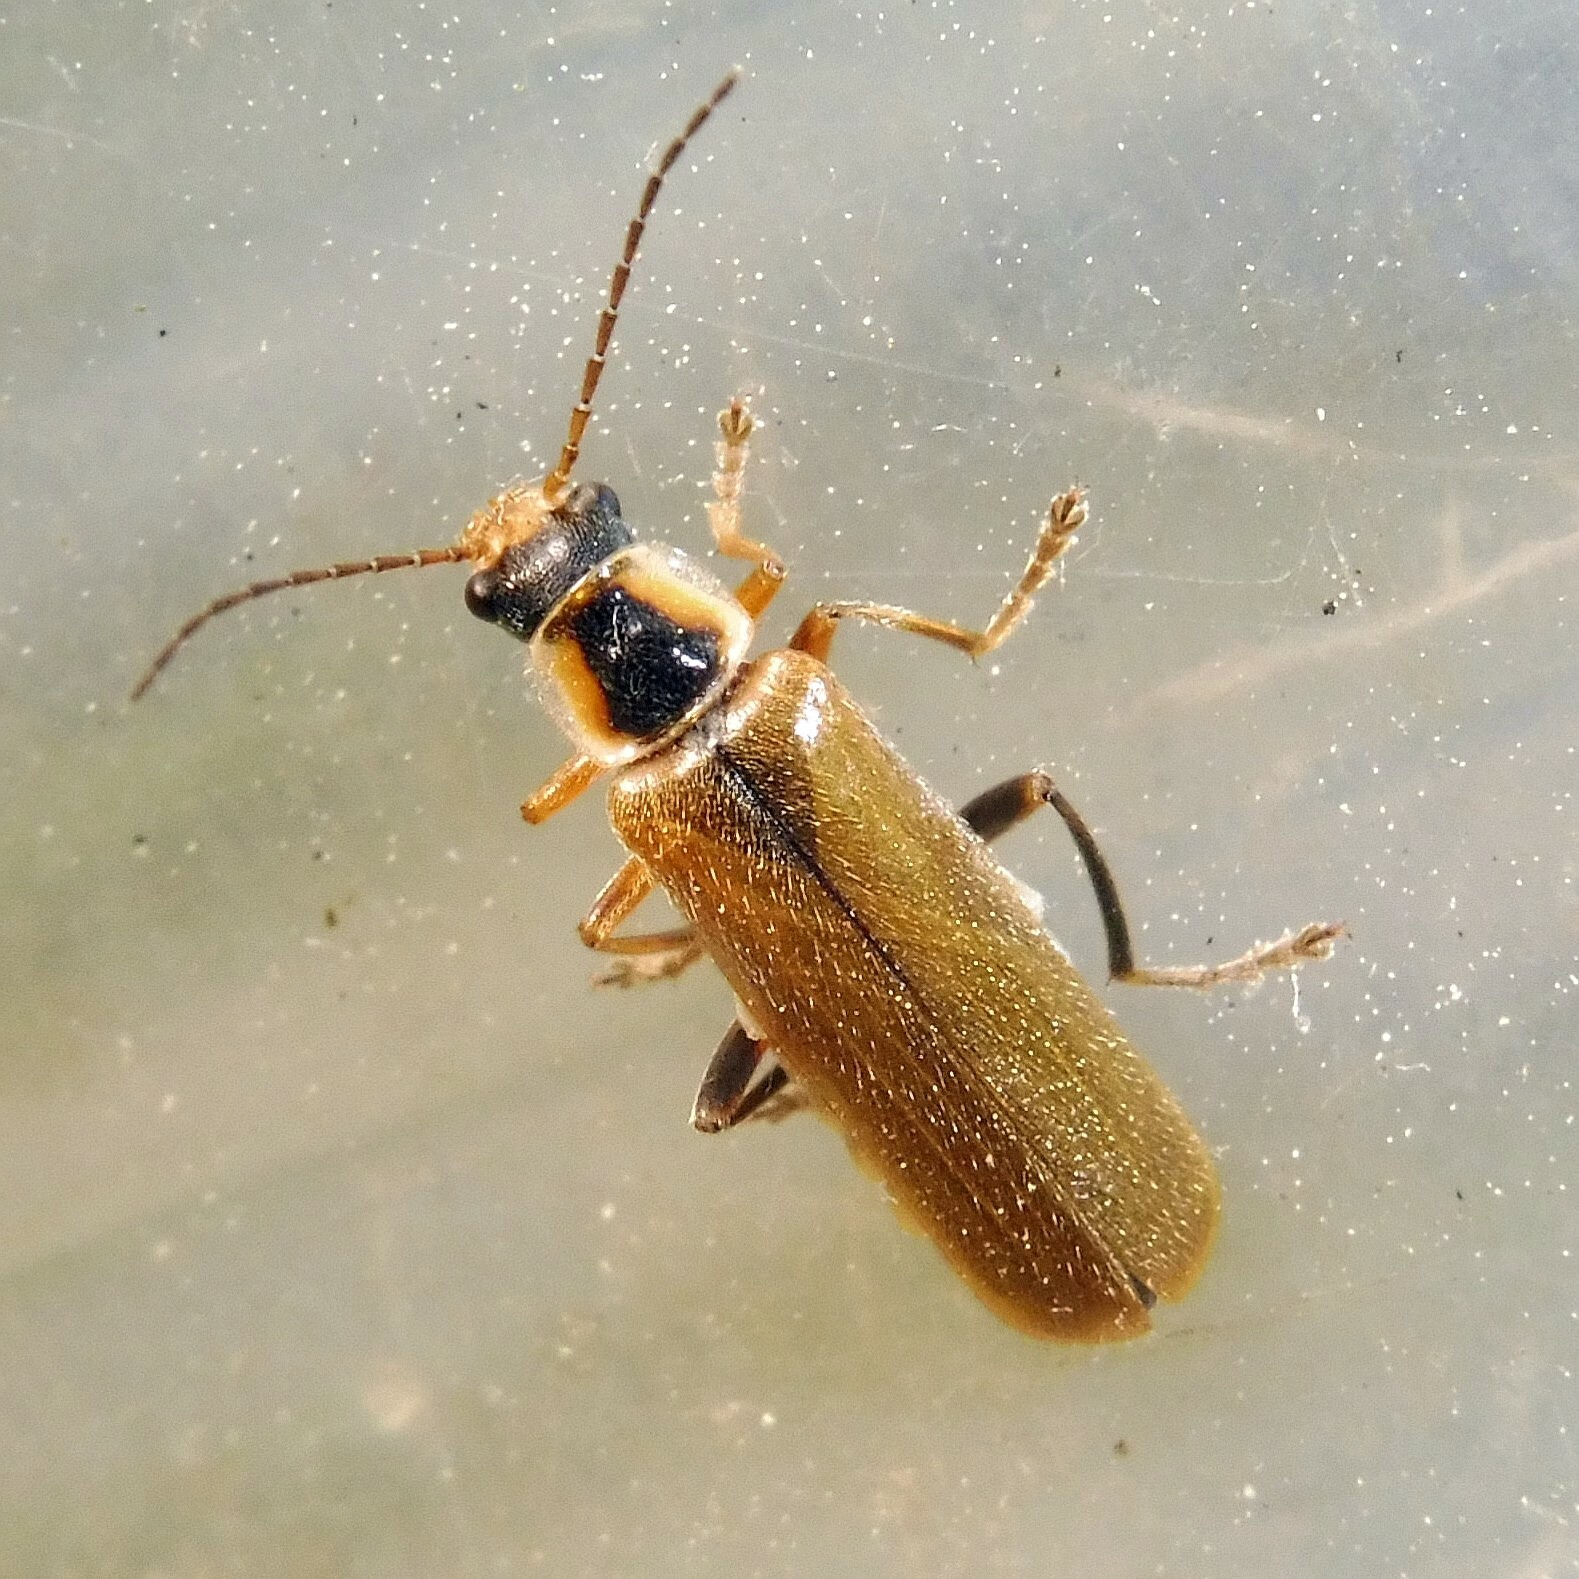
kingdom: Animalia
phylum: Arthropoda
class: Insecta
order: Coleoptera
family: Cantharidae
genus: Cantharis
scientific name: Cantharis decipiens
